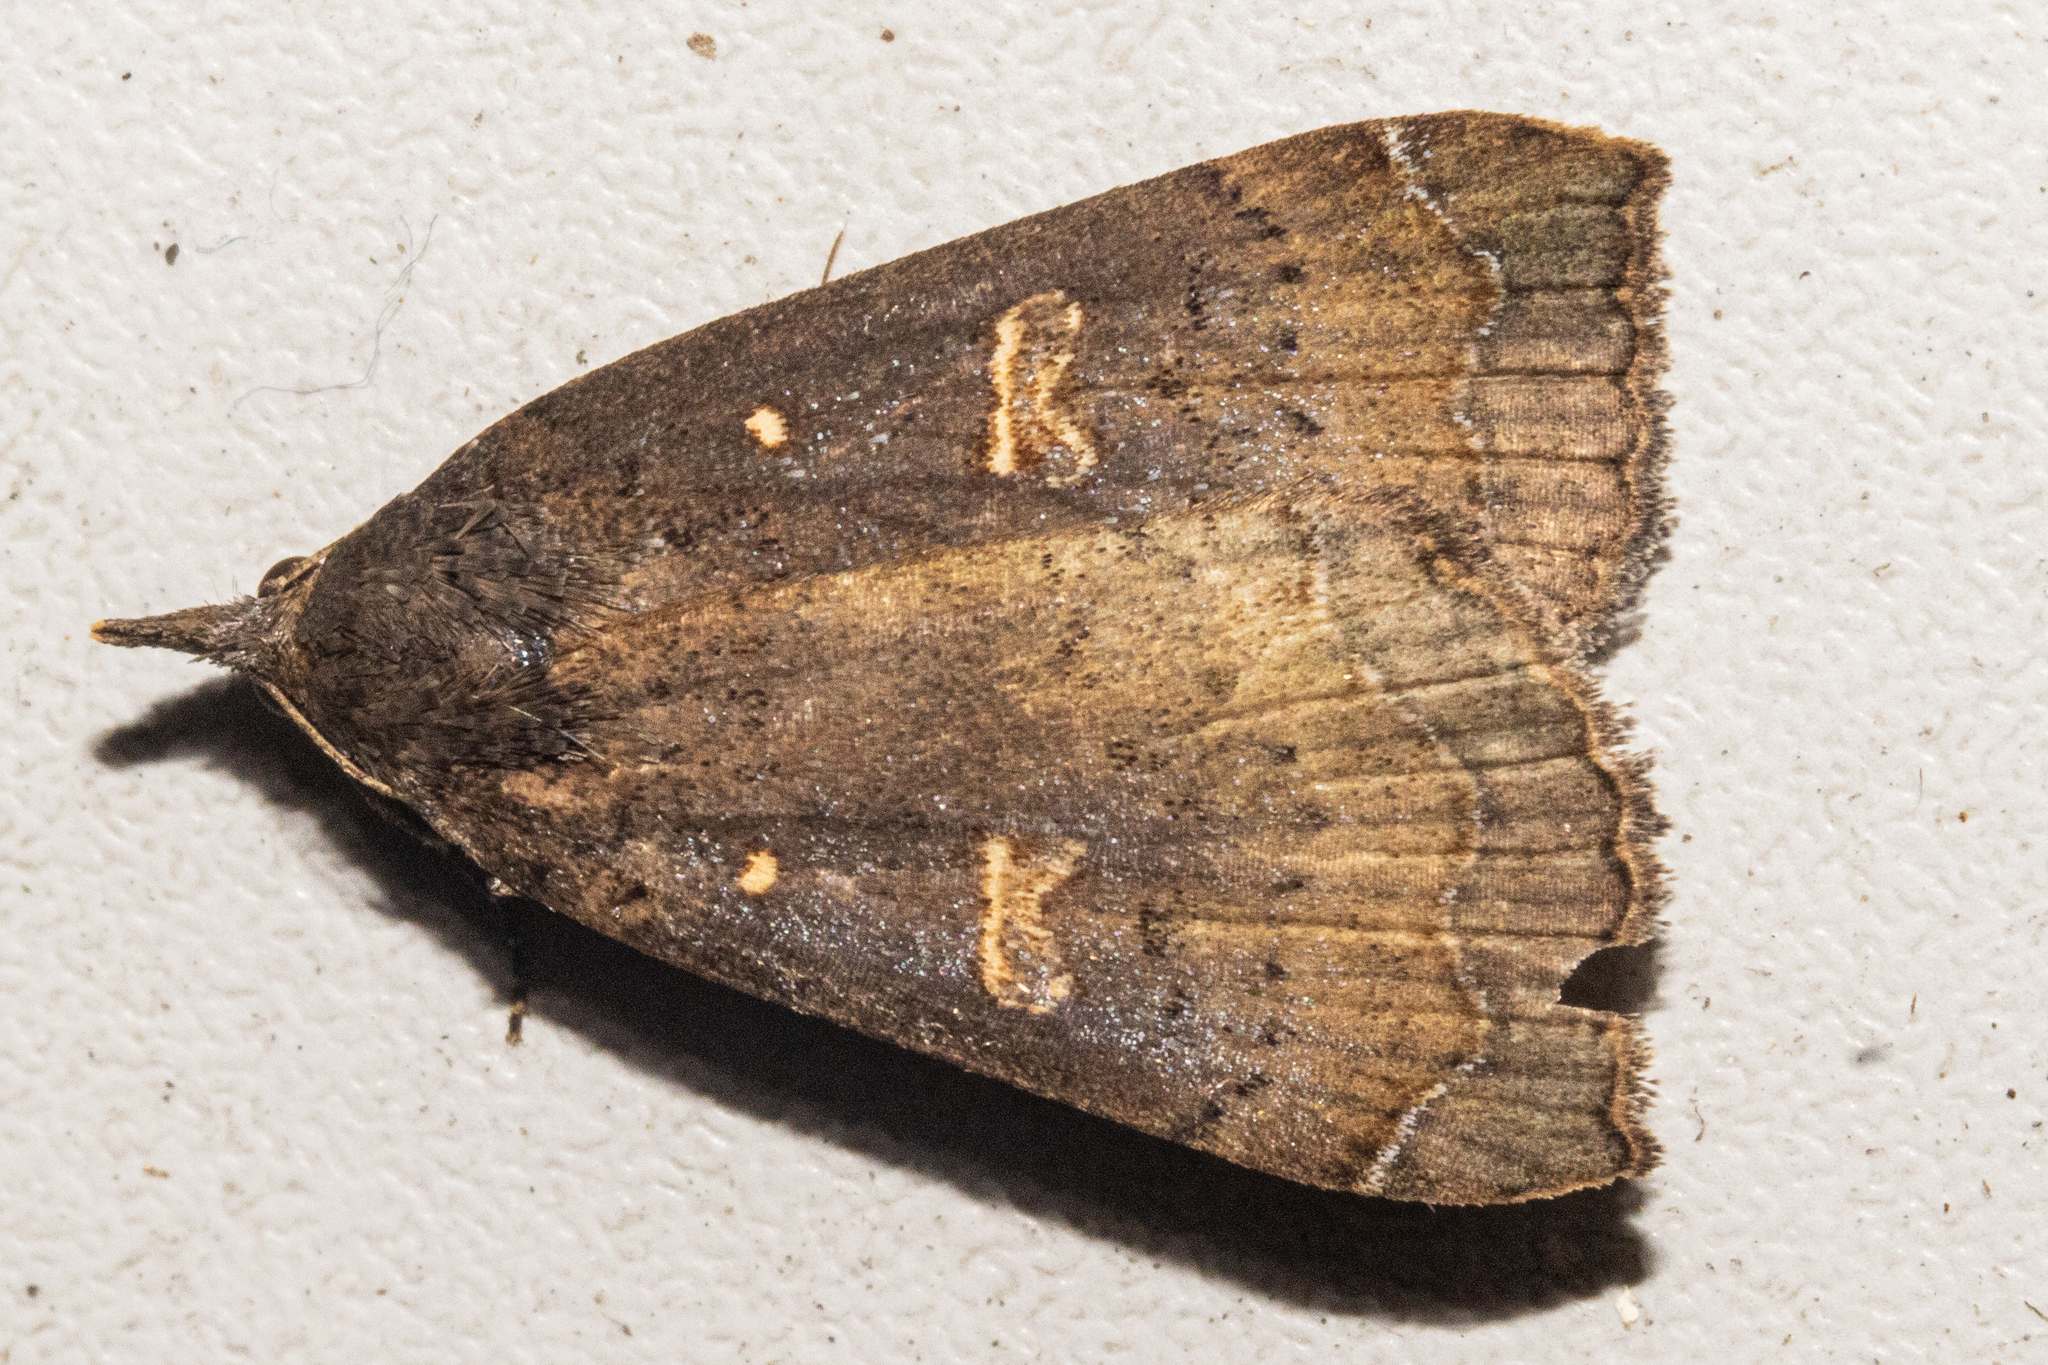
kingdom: Animalia
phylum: Arthropoda
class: Insecta
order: Lepidoptera
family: Erebidae
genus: Rhapsa
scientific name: Rhapsa scotosialis
